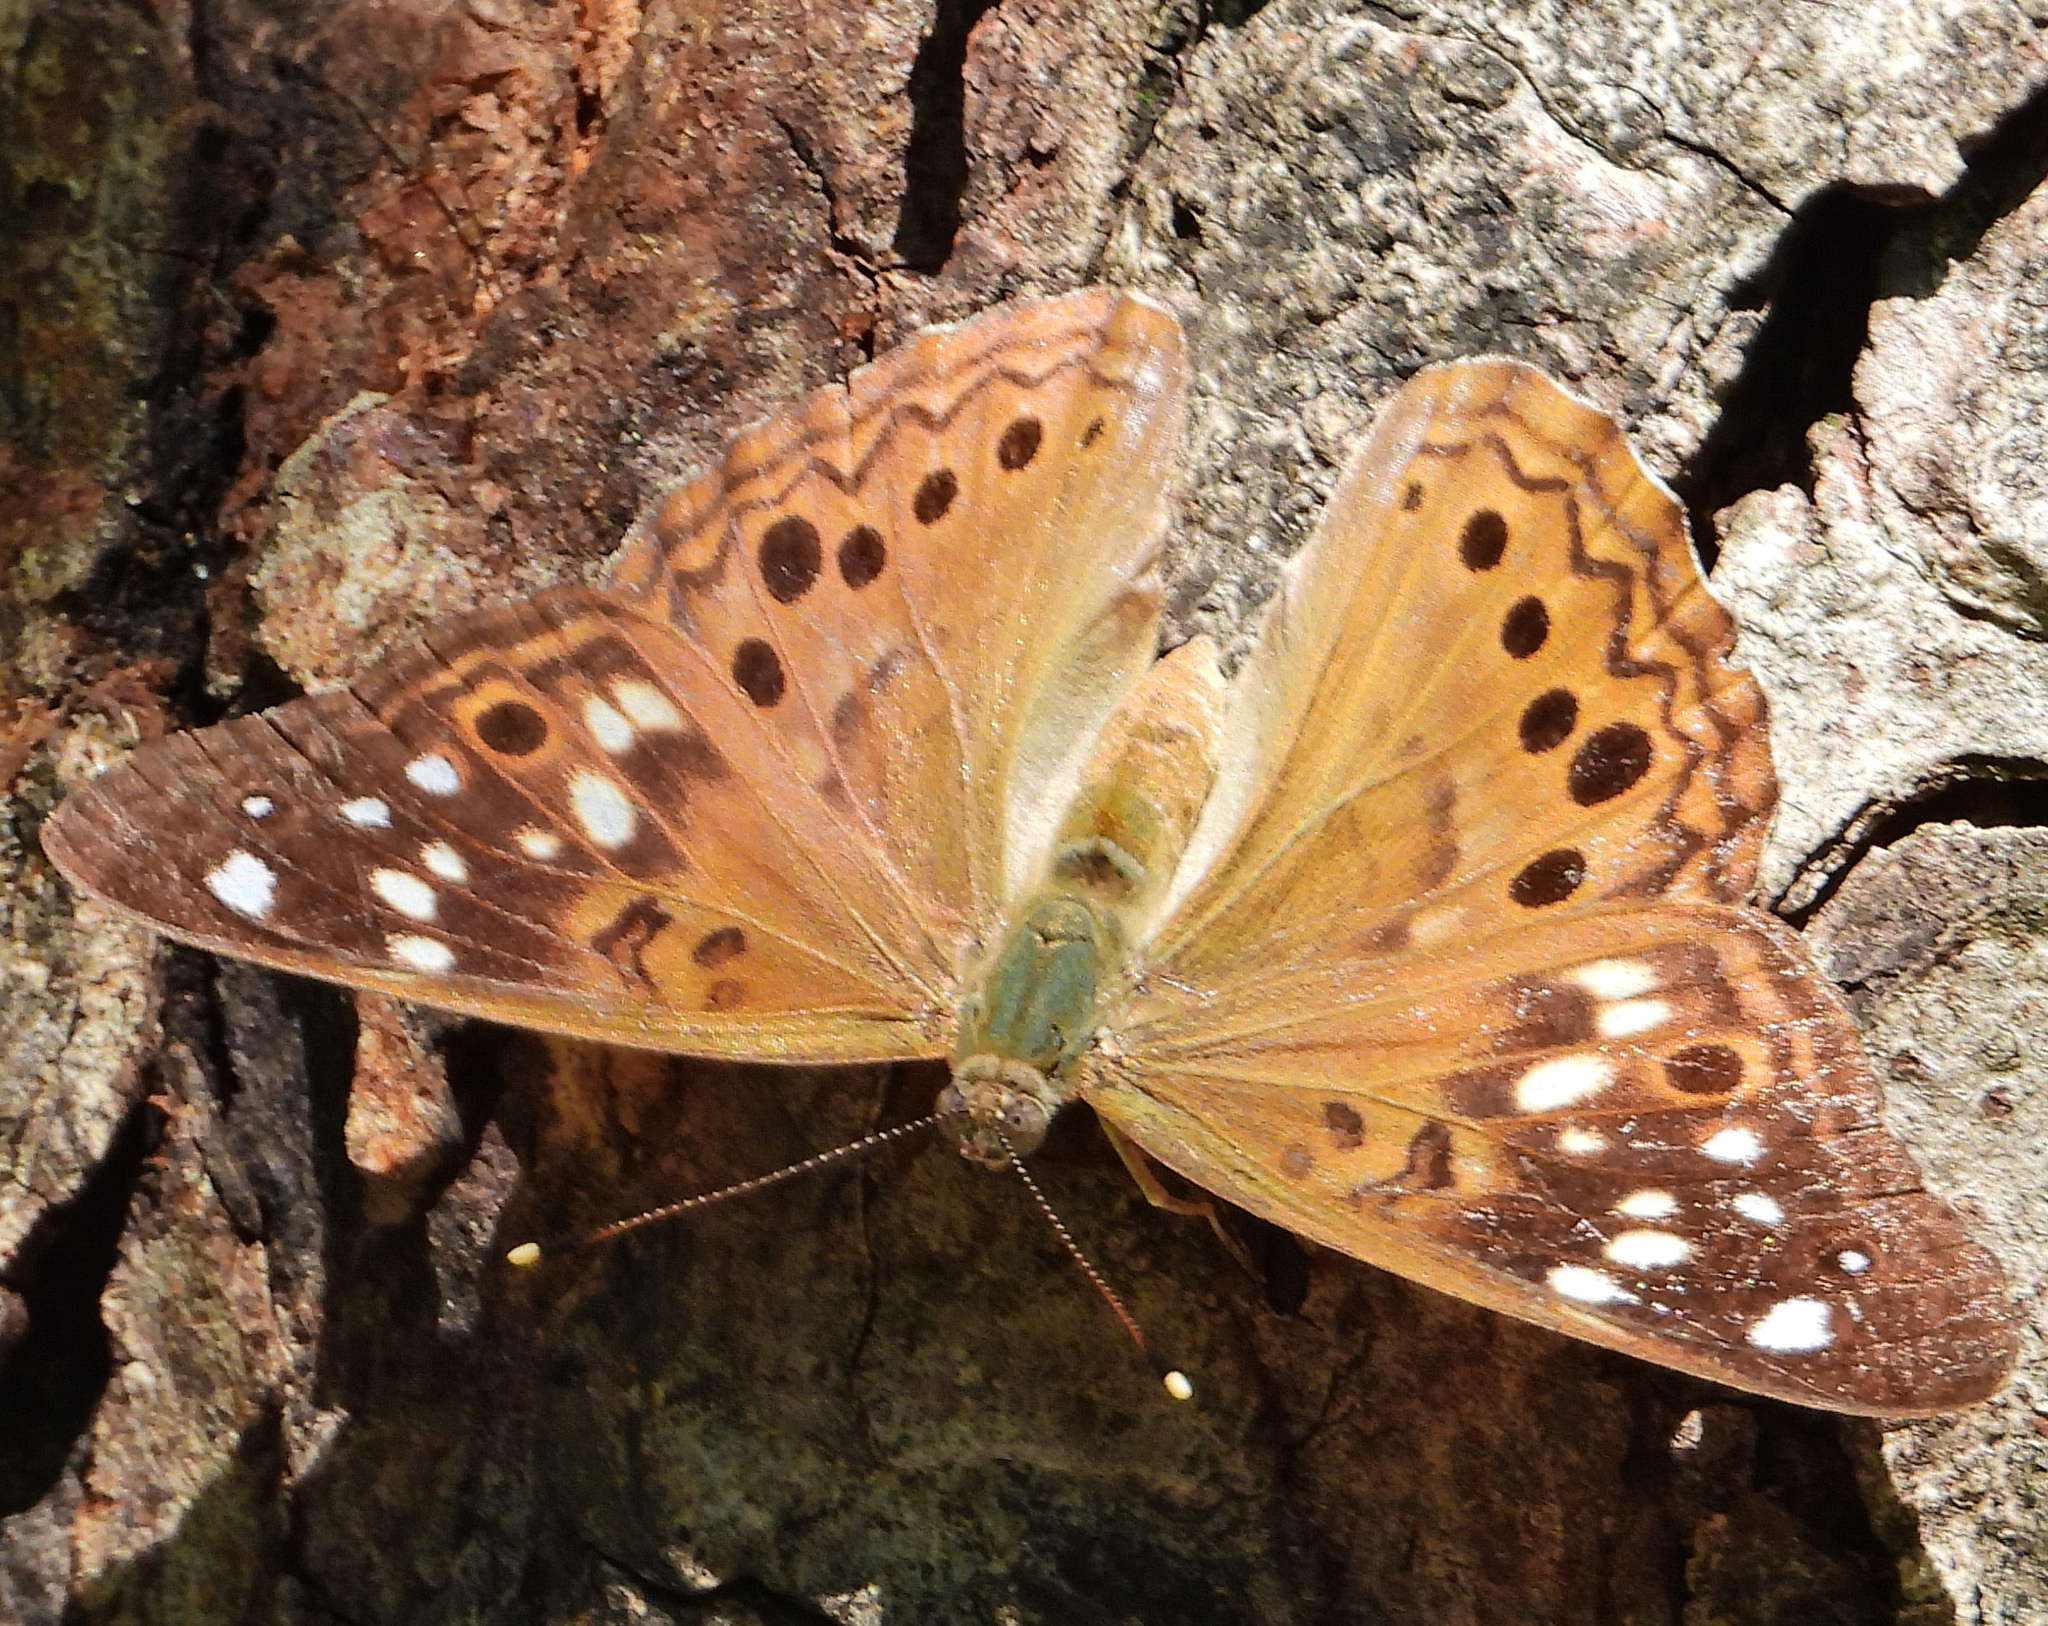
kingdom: Animalia
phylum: Arthropoda
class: Insecta
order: Lepidoptera
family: Nymphalidae
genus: Asterocampa
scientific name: Asterocampa celtis
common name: Hackberry emperor
